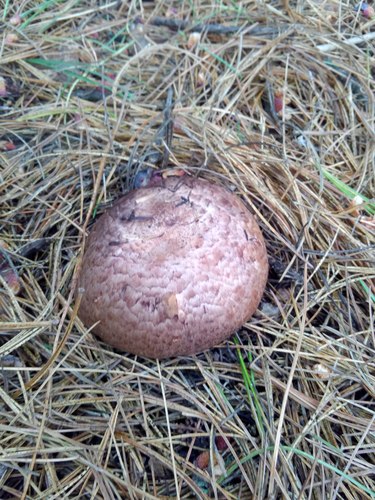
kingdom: Fungi
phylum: Basidiomycota
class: Agaricomycetes
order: Agaricales
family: Agaricaceae
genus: Agaricus
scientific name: Agaricus
